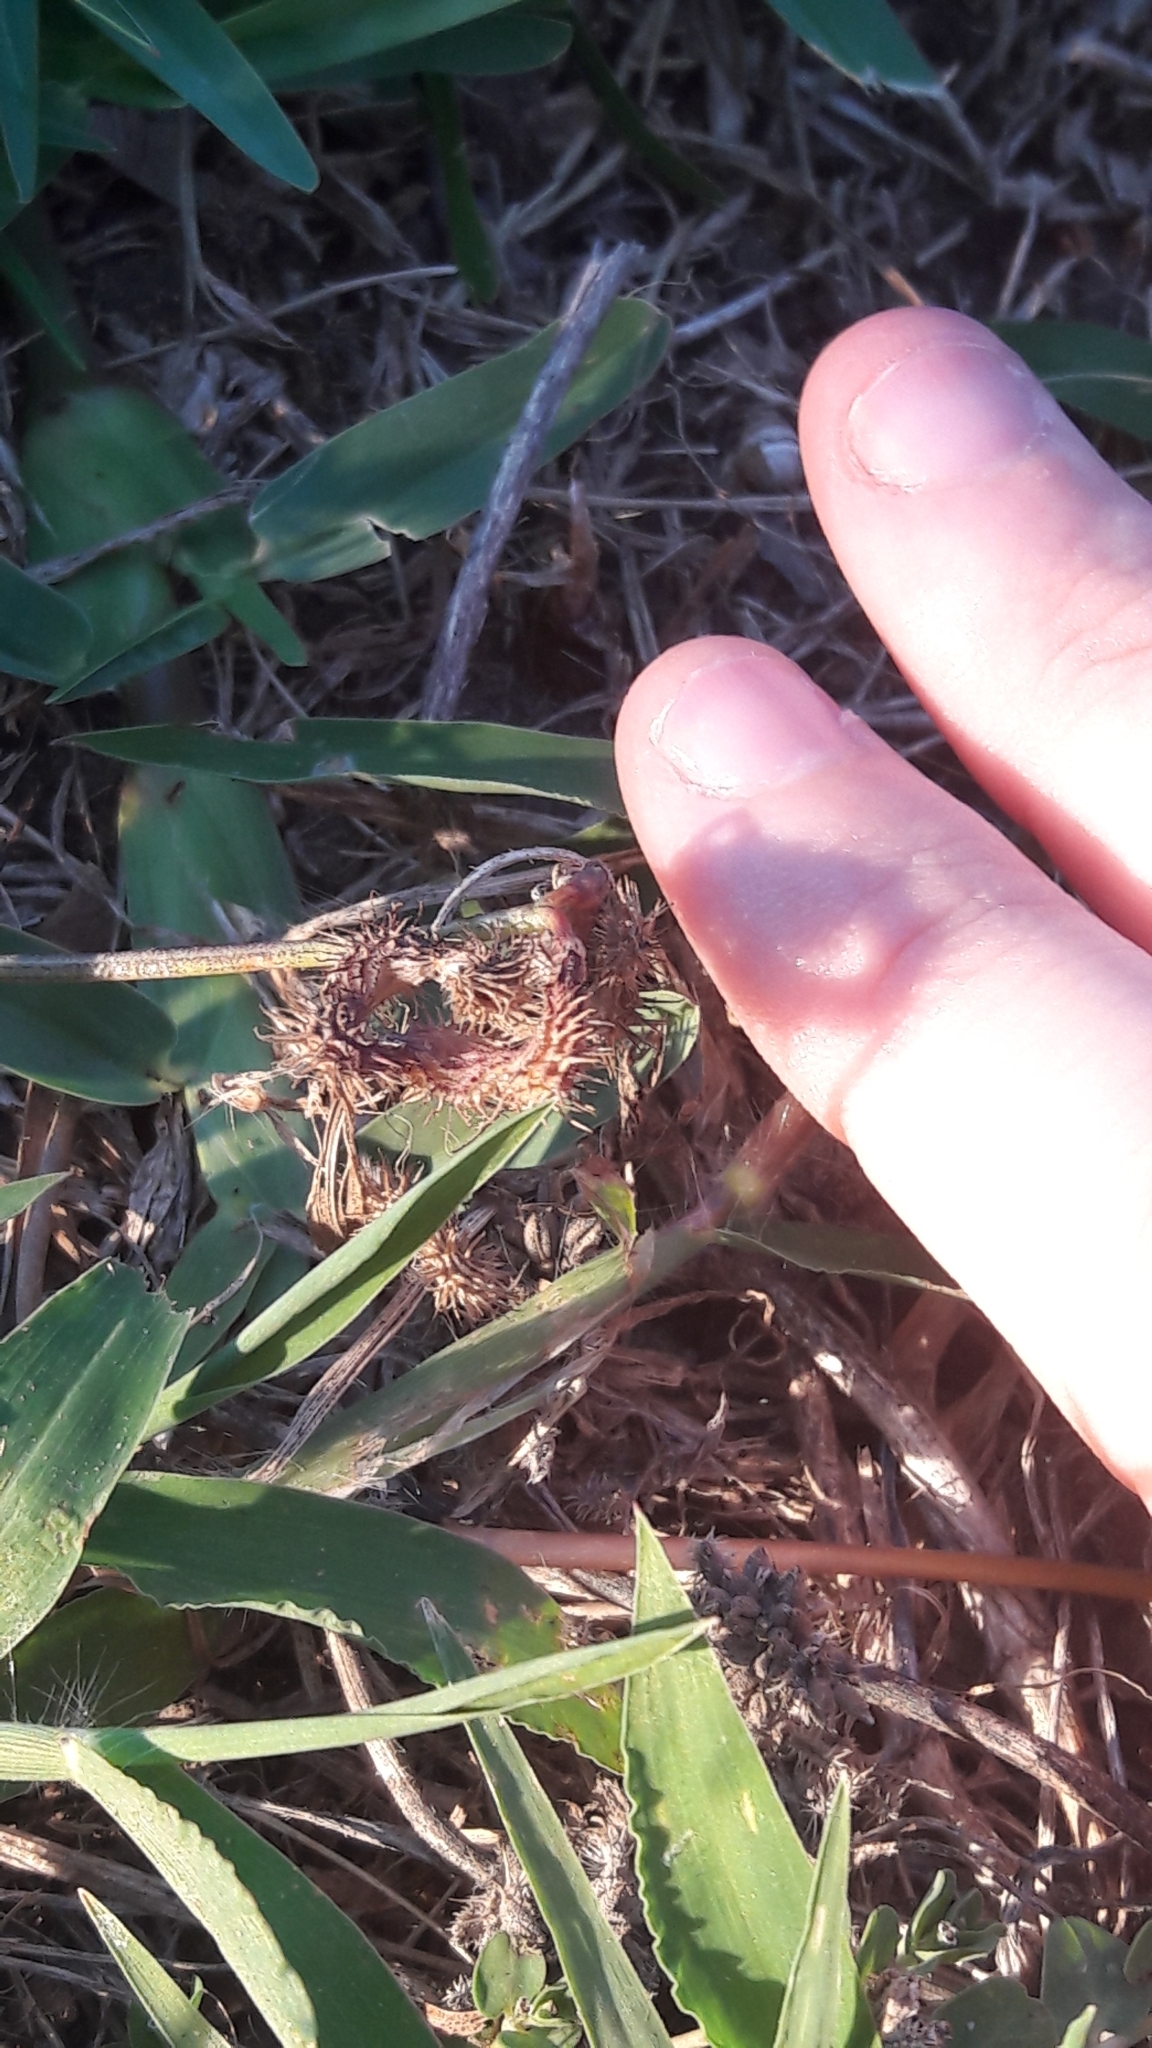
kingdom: Plantae
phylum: Tracheophyta
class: Magnoliopsida
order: Fabales
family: Fabaceae
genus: Scorpiurus
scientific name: Scorpiurus muricatus
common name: Caterpillar-plant
